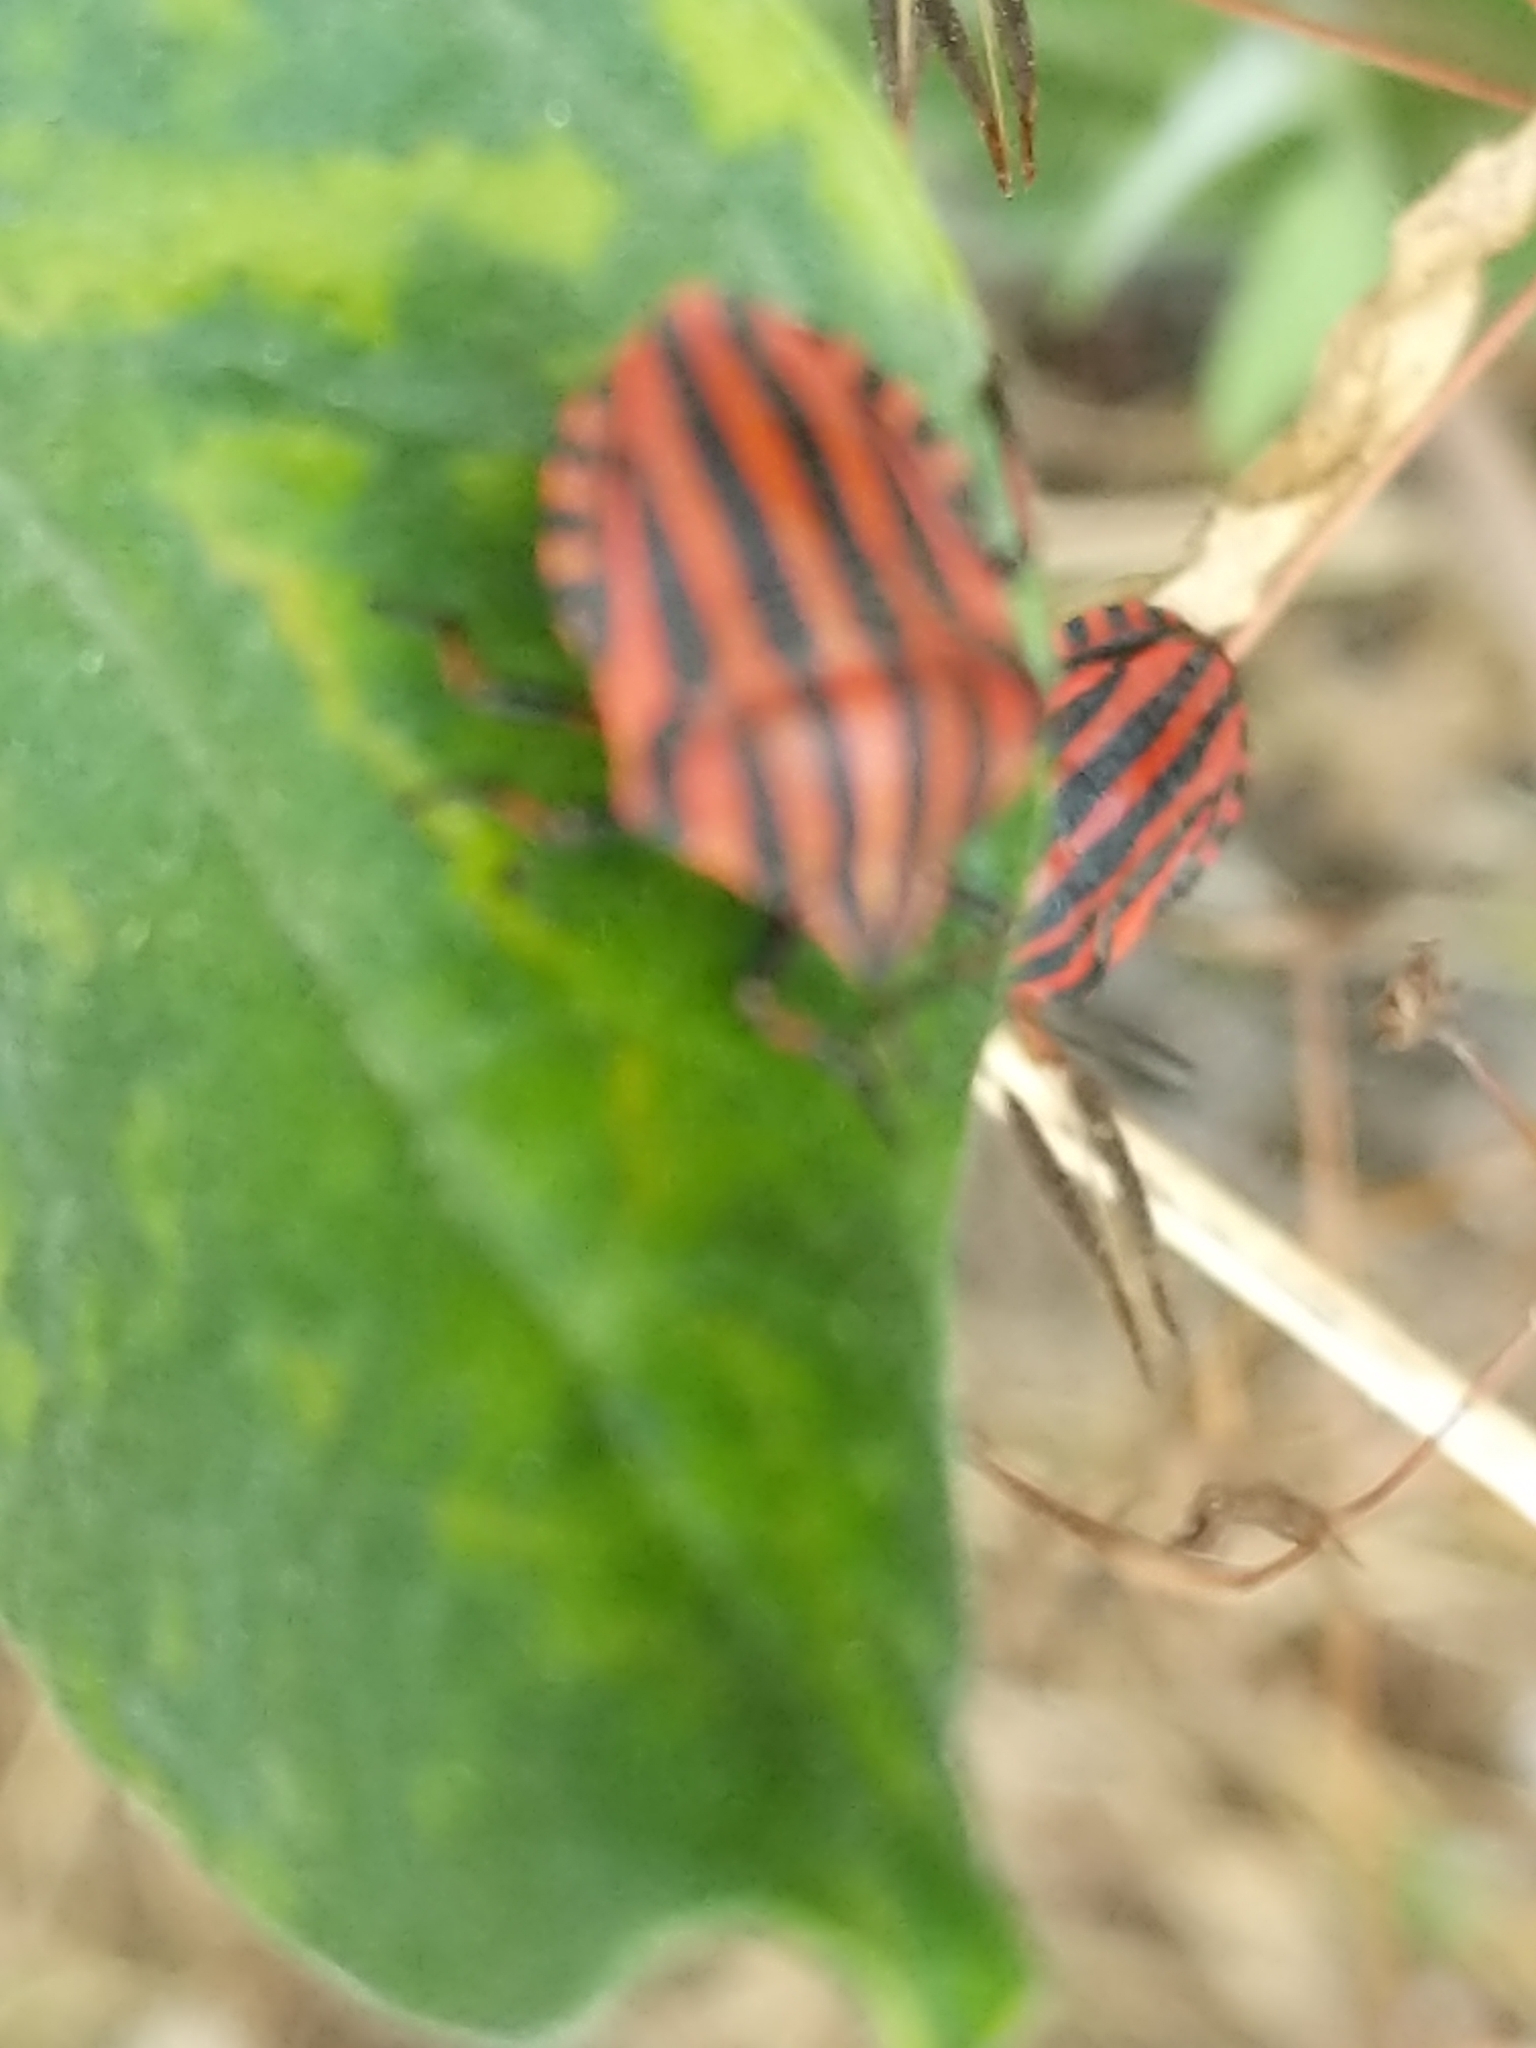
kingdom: Animalia
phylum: Arthropoda
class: Insecta
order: Hemiptera
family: Pentatomidae
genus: Graphosoma
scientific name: Graphosoma italicum
